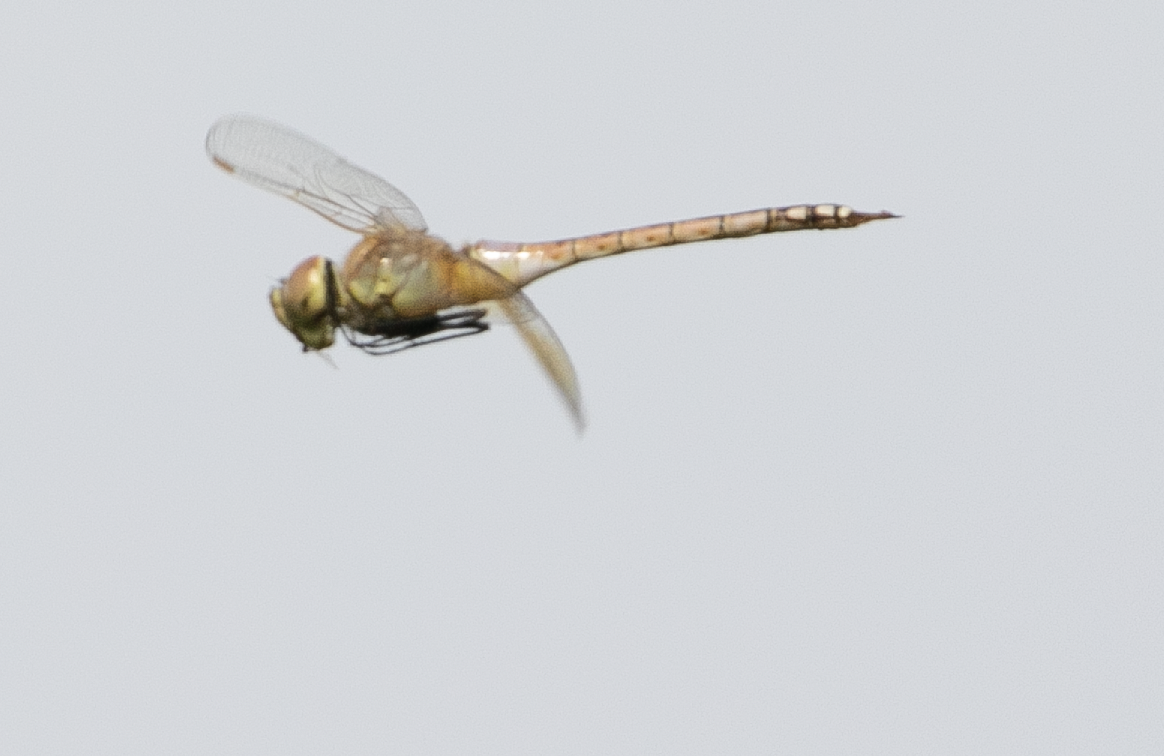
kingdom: Animalia
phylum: Arthropoda
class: Insecta
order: Odonata
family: Aeshnidae
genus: Anax
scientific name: Anax ephippiger
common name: Vagrant emperor
